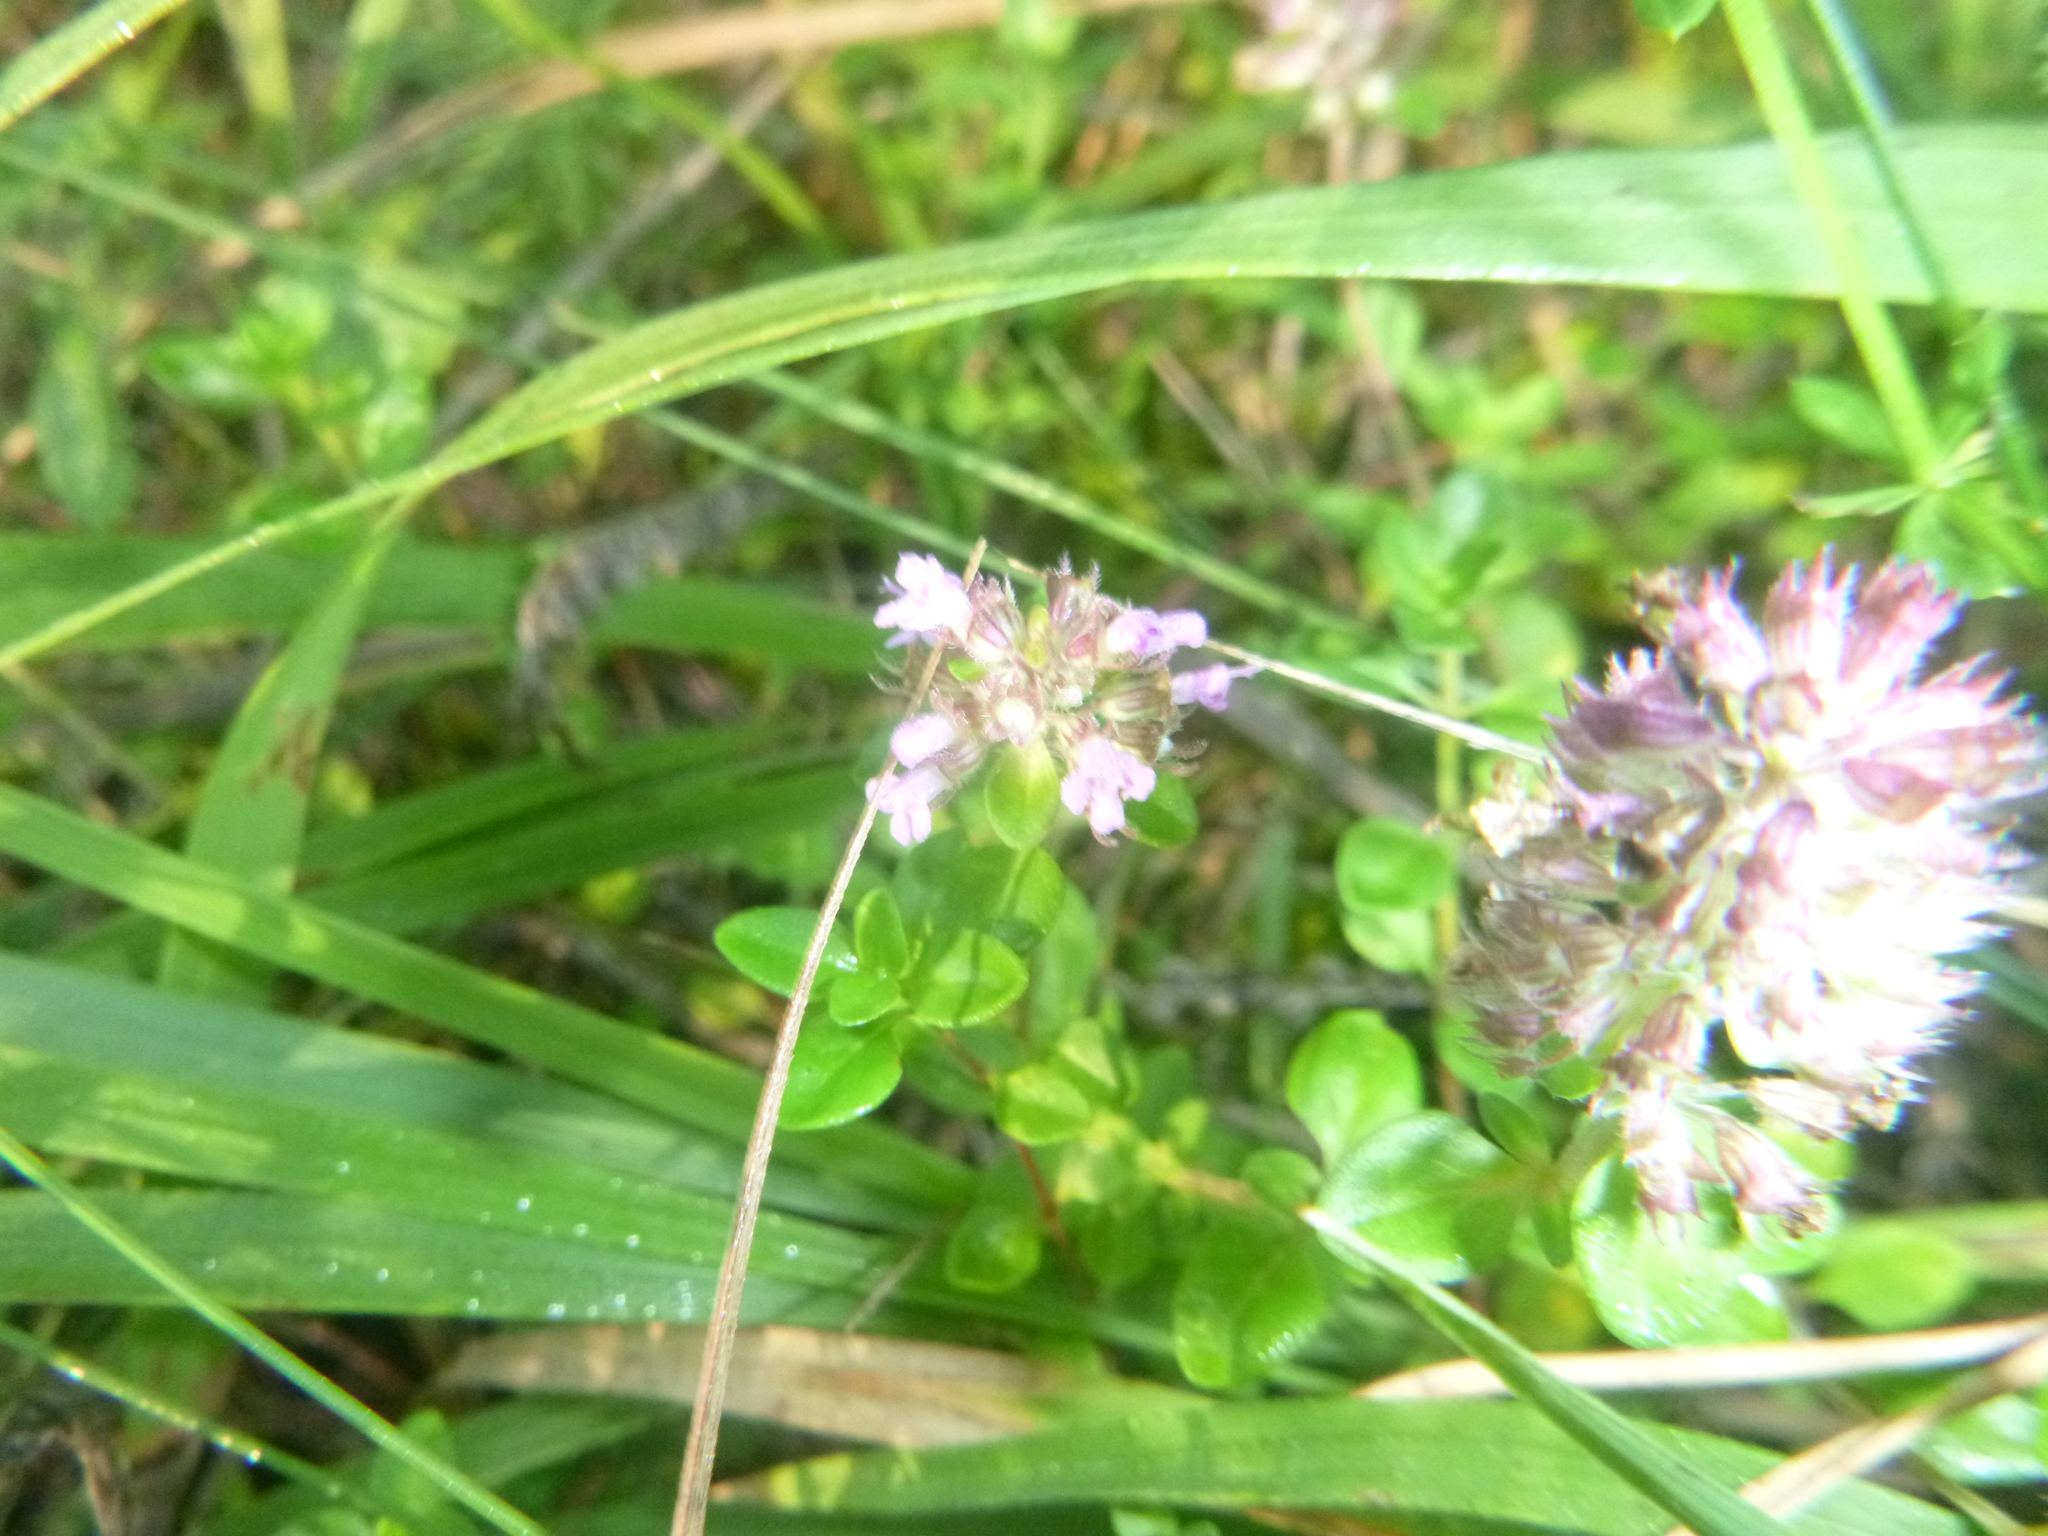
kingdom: Plantae
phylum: Tracheophyta
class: Magnoliopsida
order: Lamiales
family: Lamiaceae
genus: Thymus
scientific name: Thymus pulegioides
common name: Large thyme
